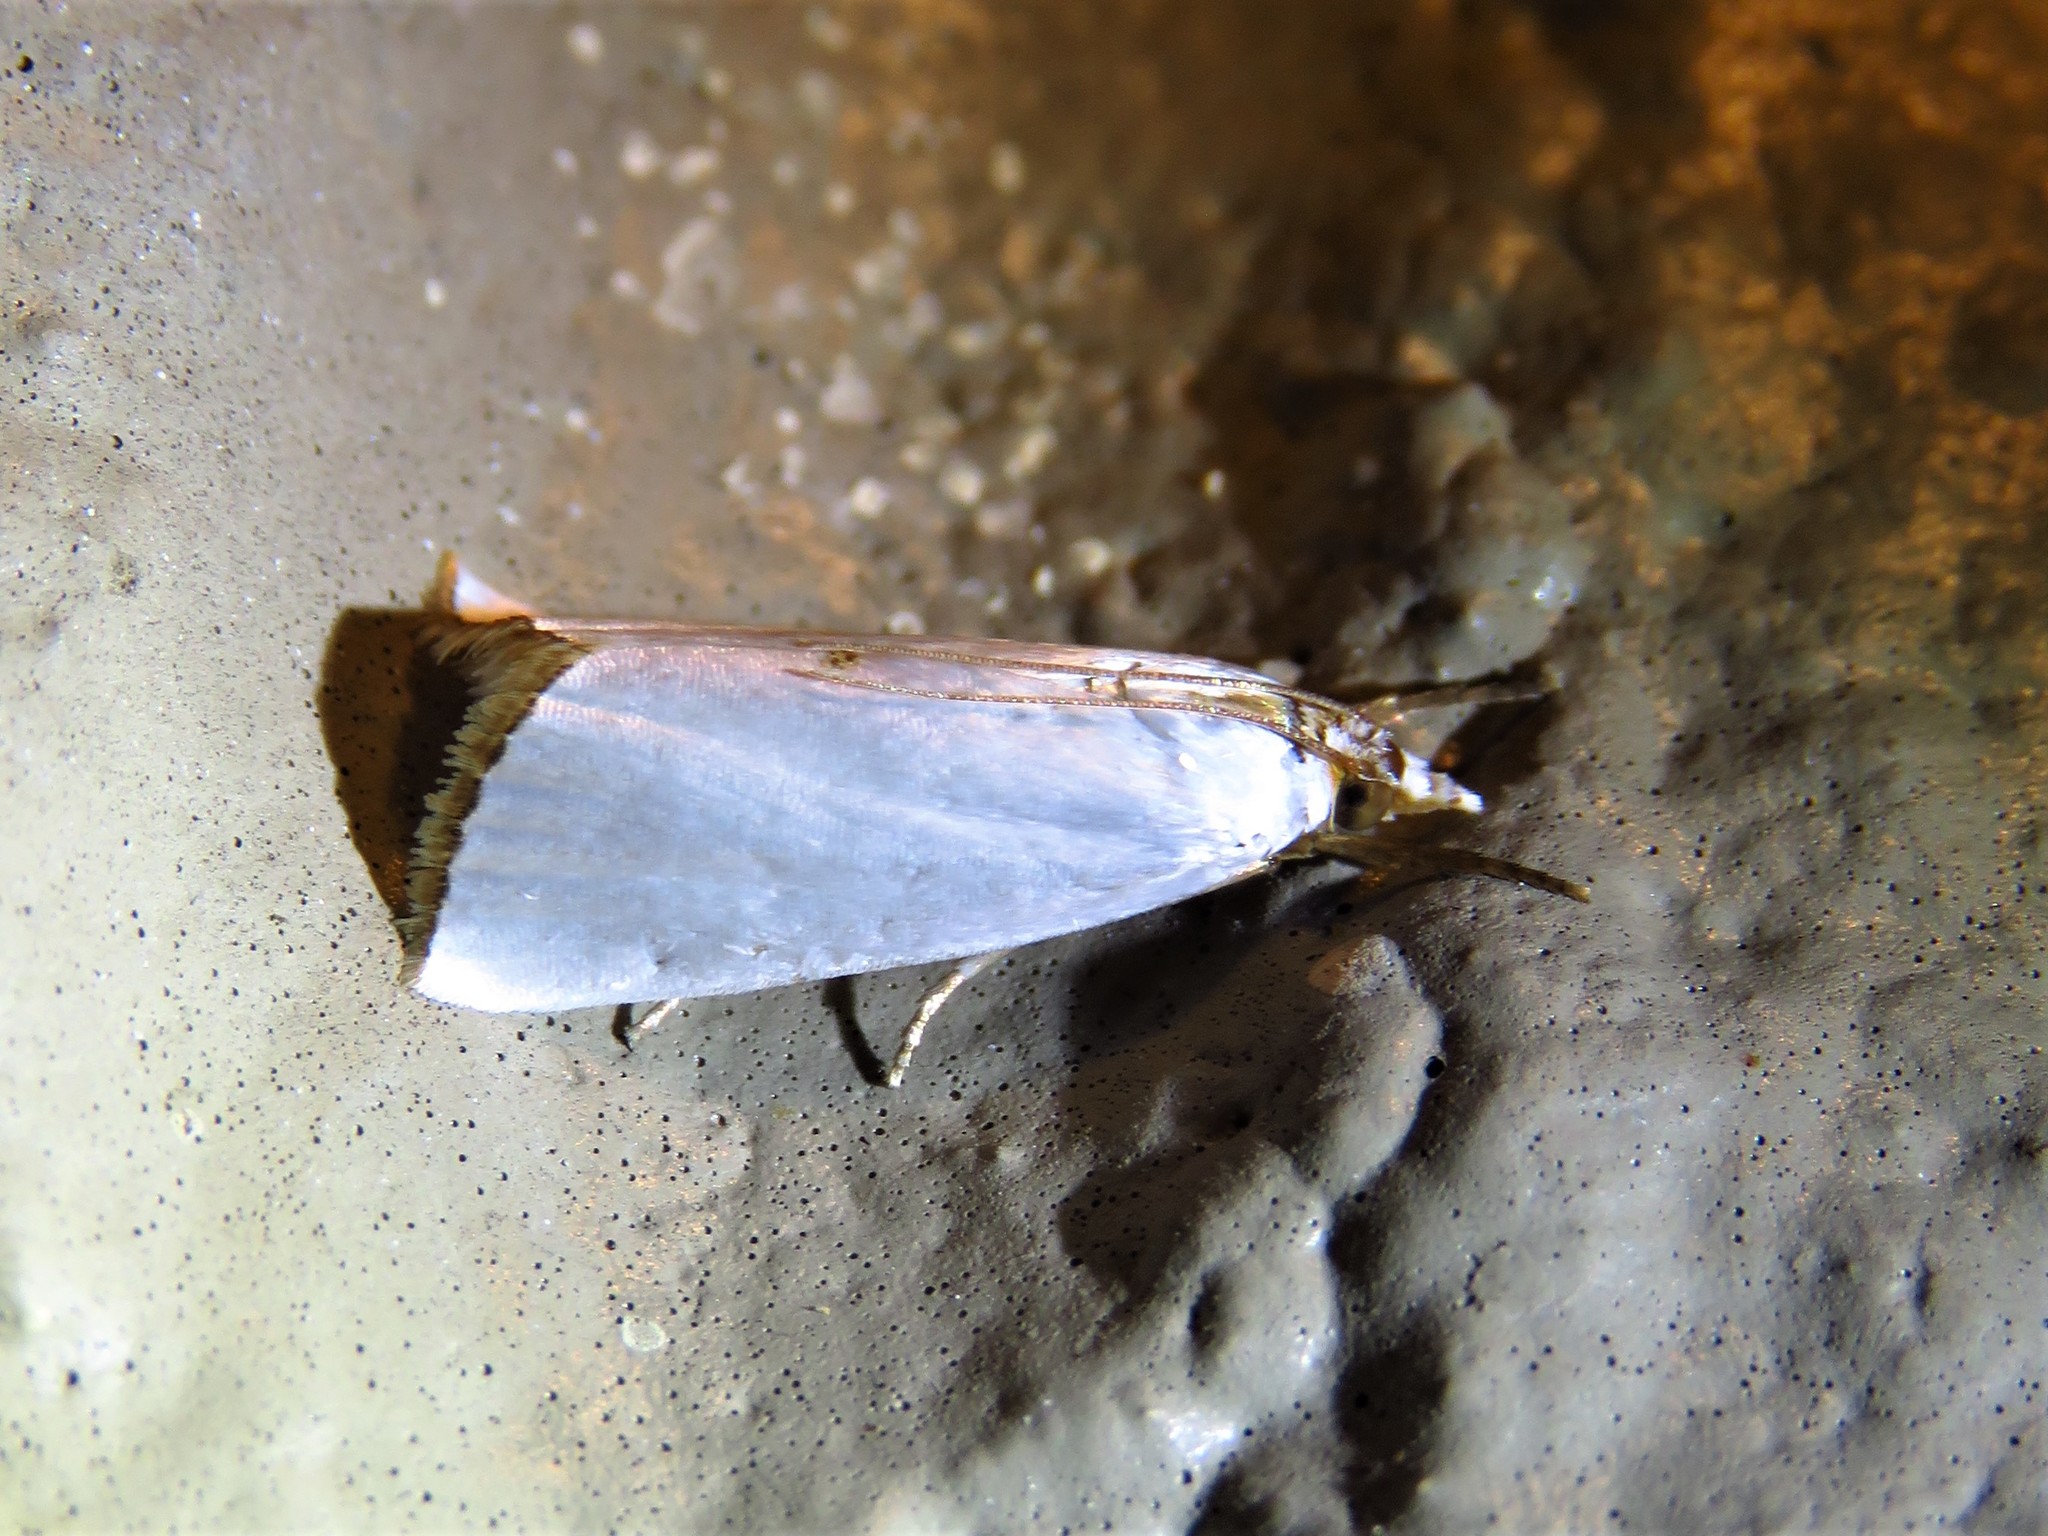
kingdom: Animalia
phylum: Arthropoda
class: Insecta
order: Lepidoptera
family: Crambidae
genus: Argyria
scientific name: Argyria nivalis
